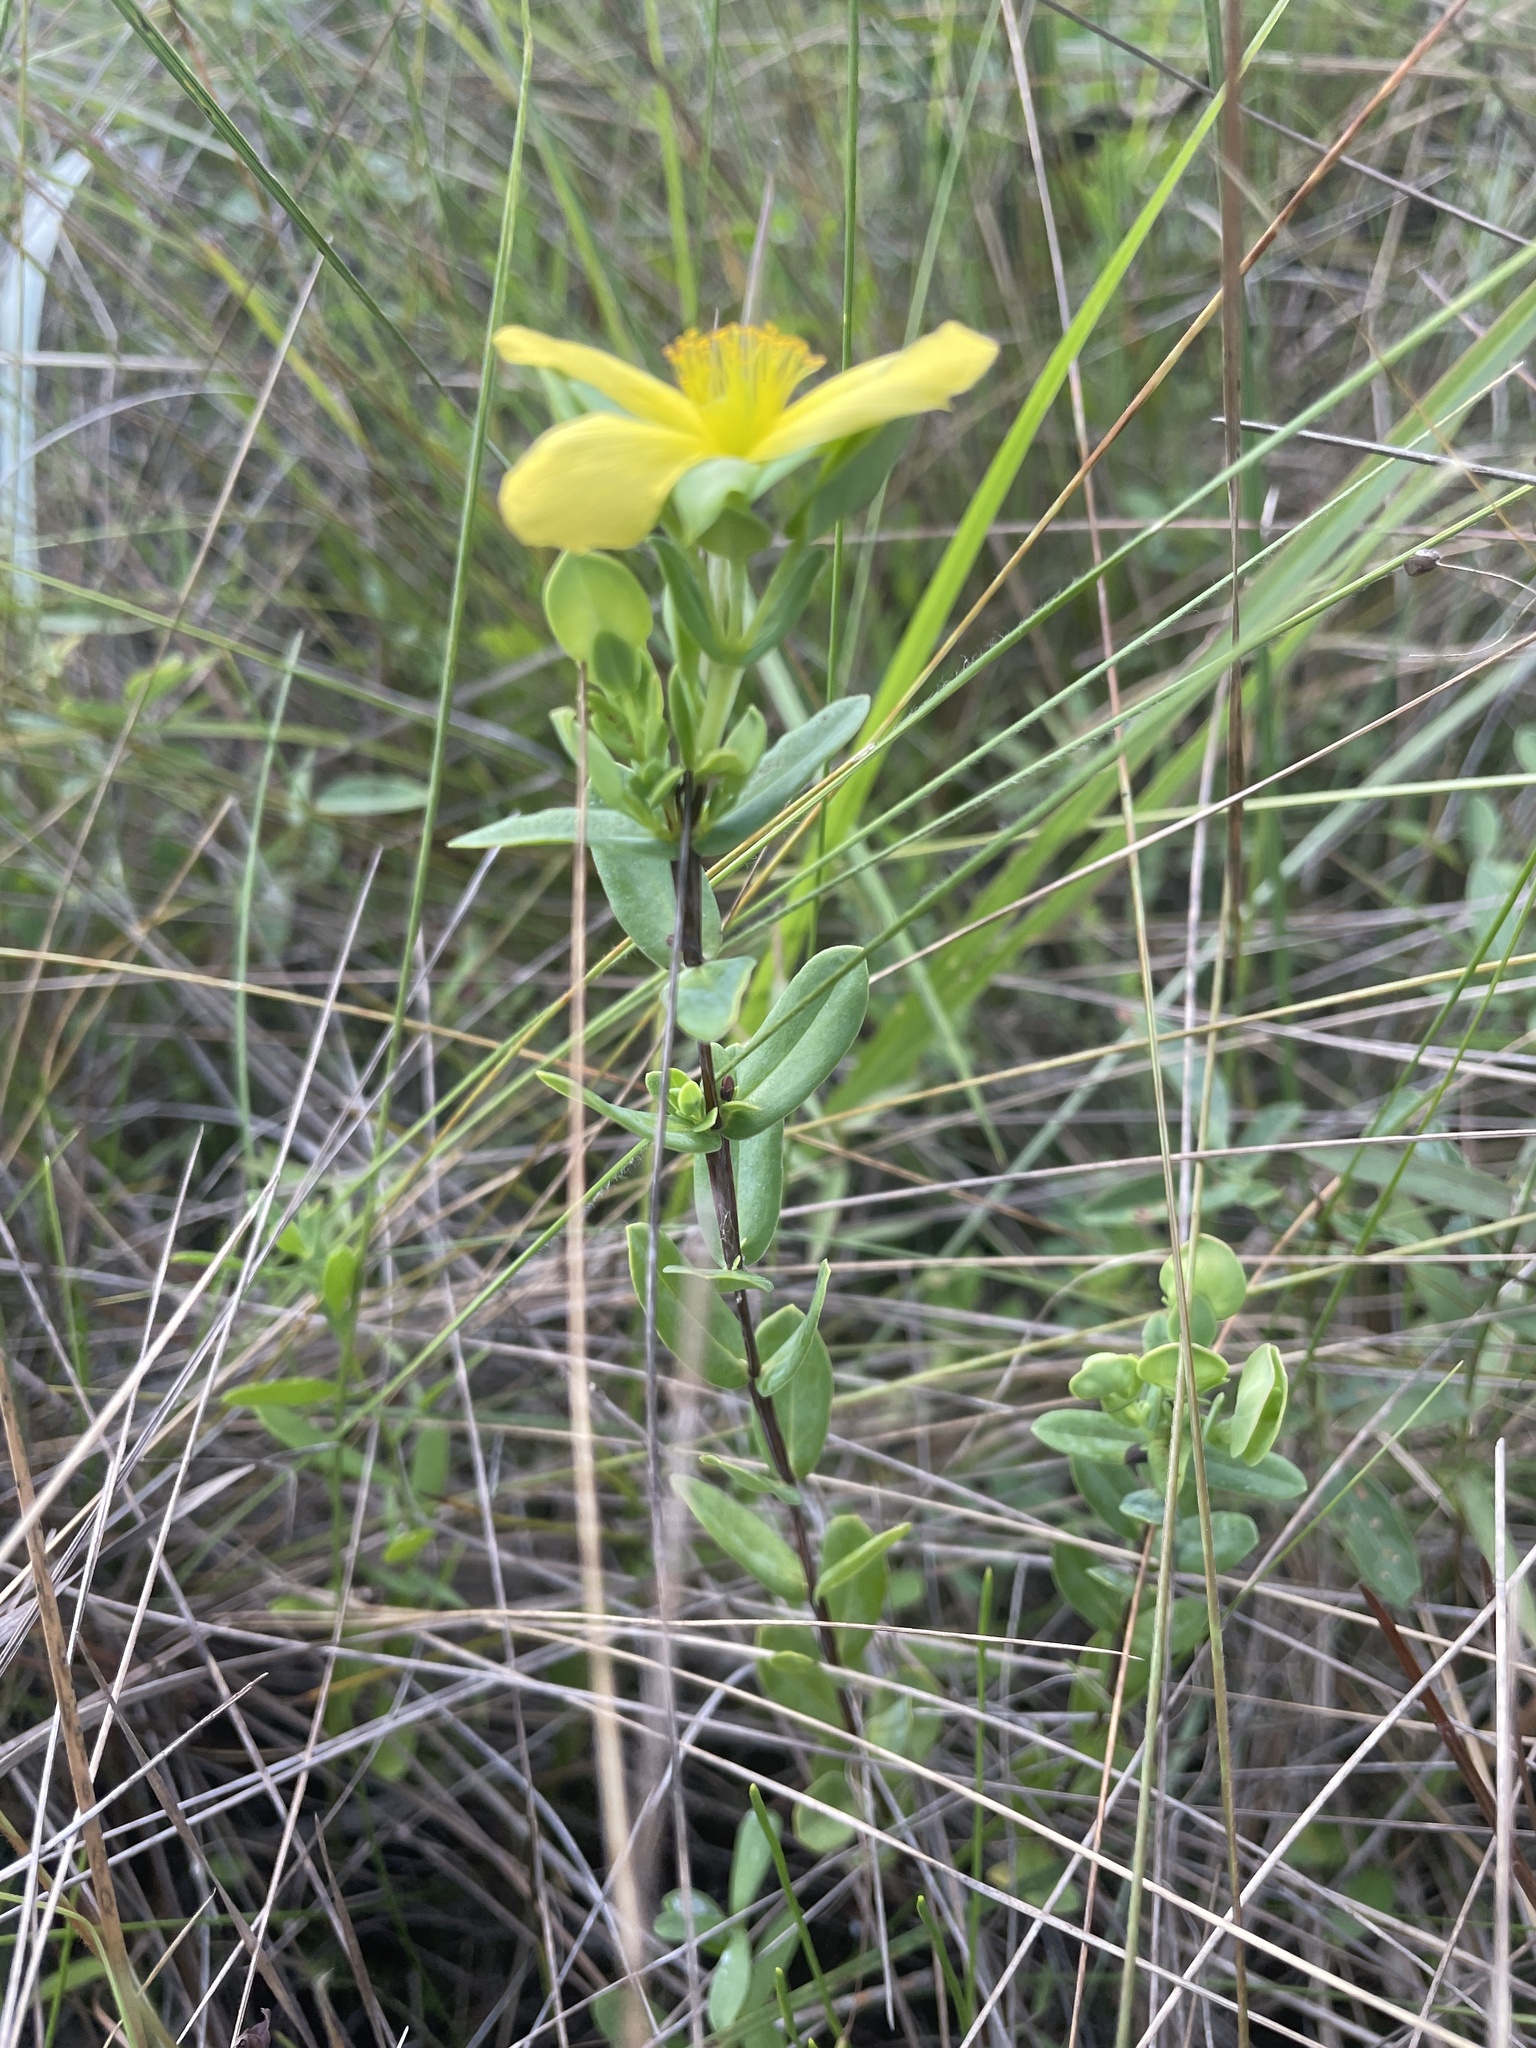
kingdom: Plantae
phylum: Tracheophyta
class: Magnoliopsida
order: Malpighiales
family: Hypericaceae
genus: Hypericum
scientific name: Hypericum crux-andreae
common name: St.-peter's-wort
